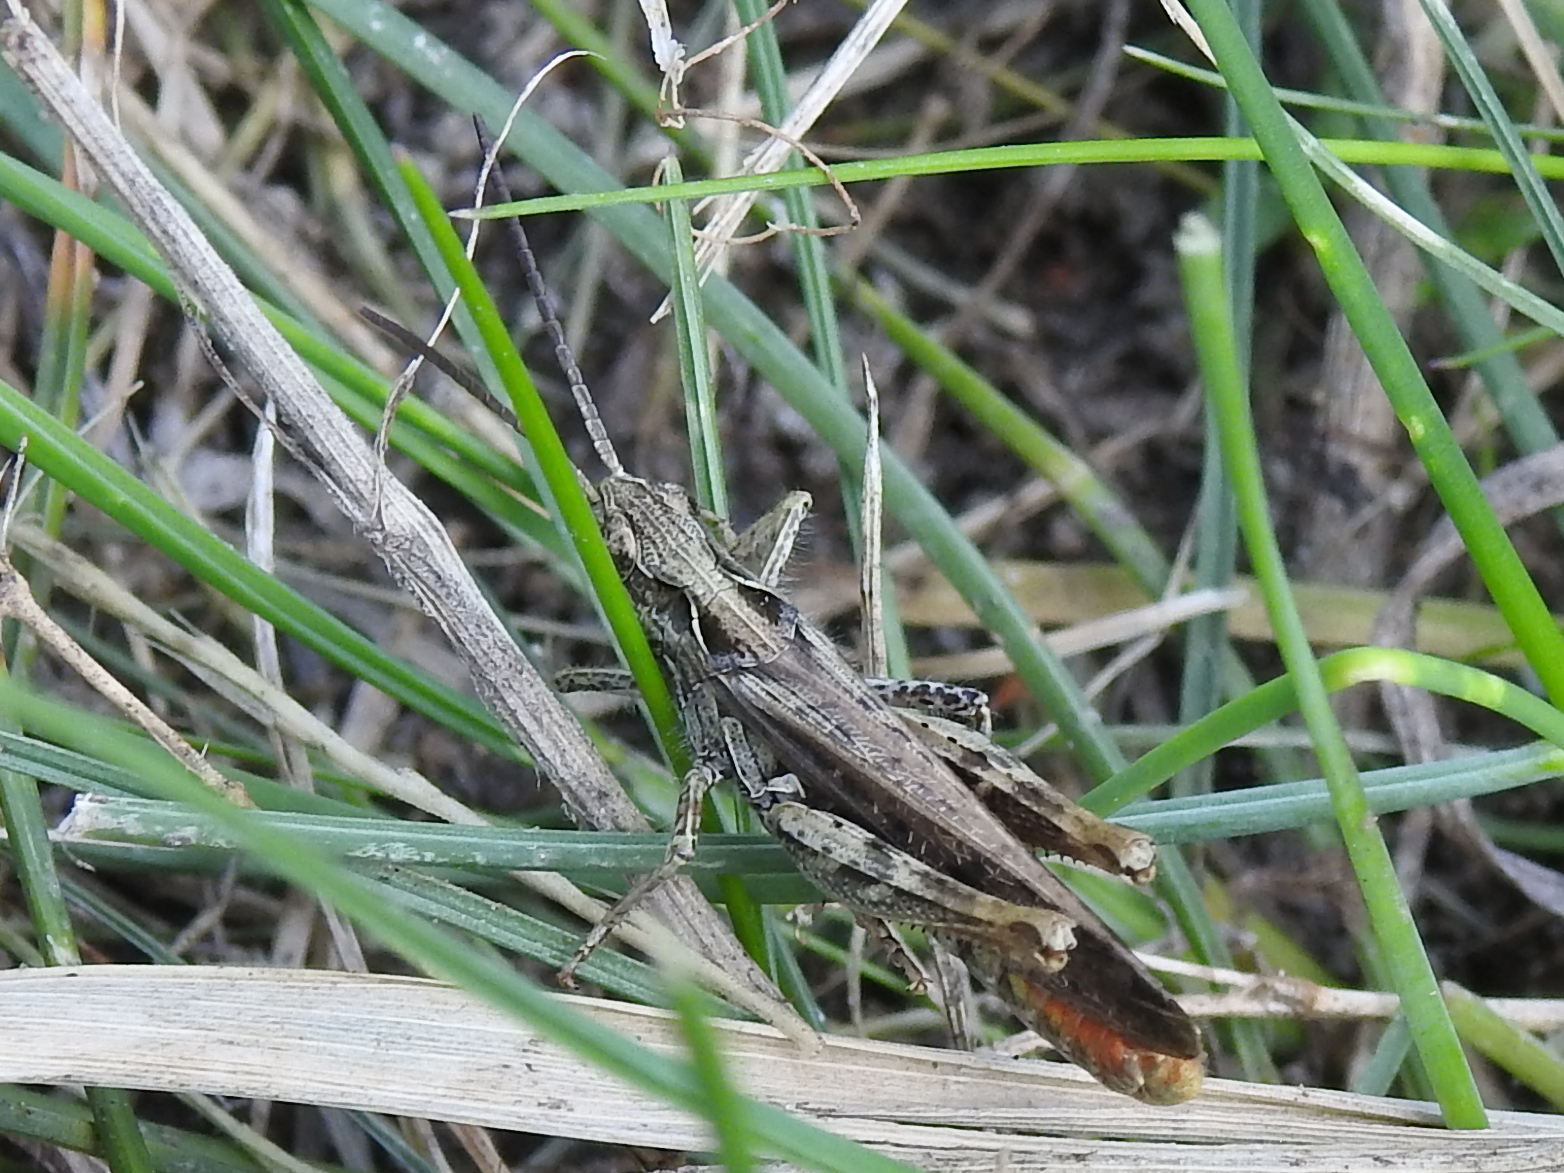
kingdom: Animalia
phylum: Arthropoda
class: Insecta
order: Orthoptera
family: Acrididae
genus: Chorthippus
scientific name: Chorthippus brunneus
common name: Field grasshopper
